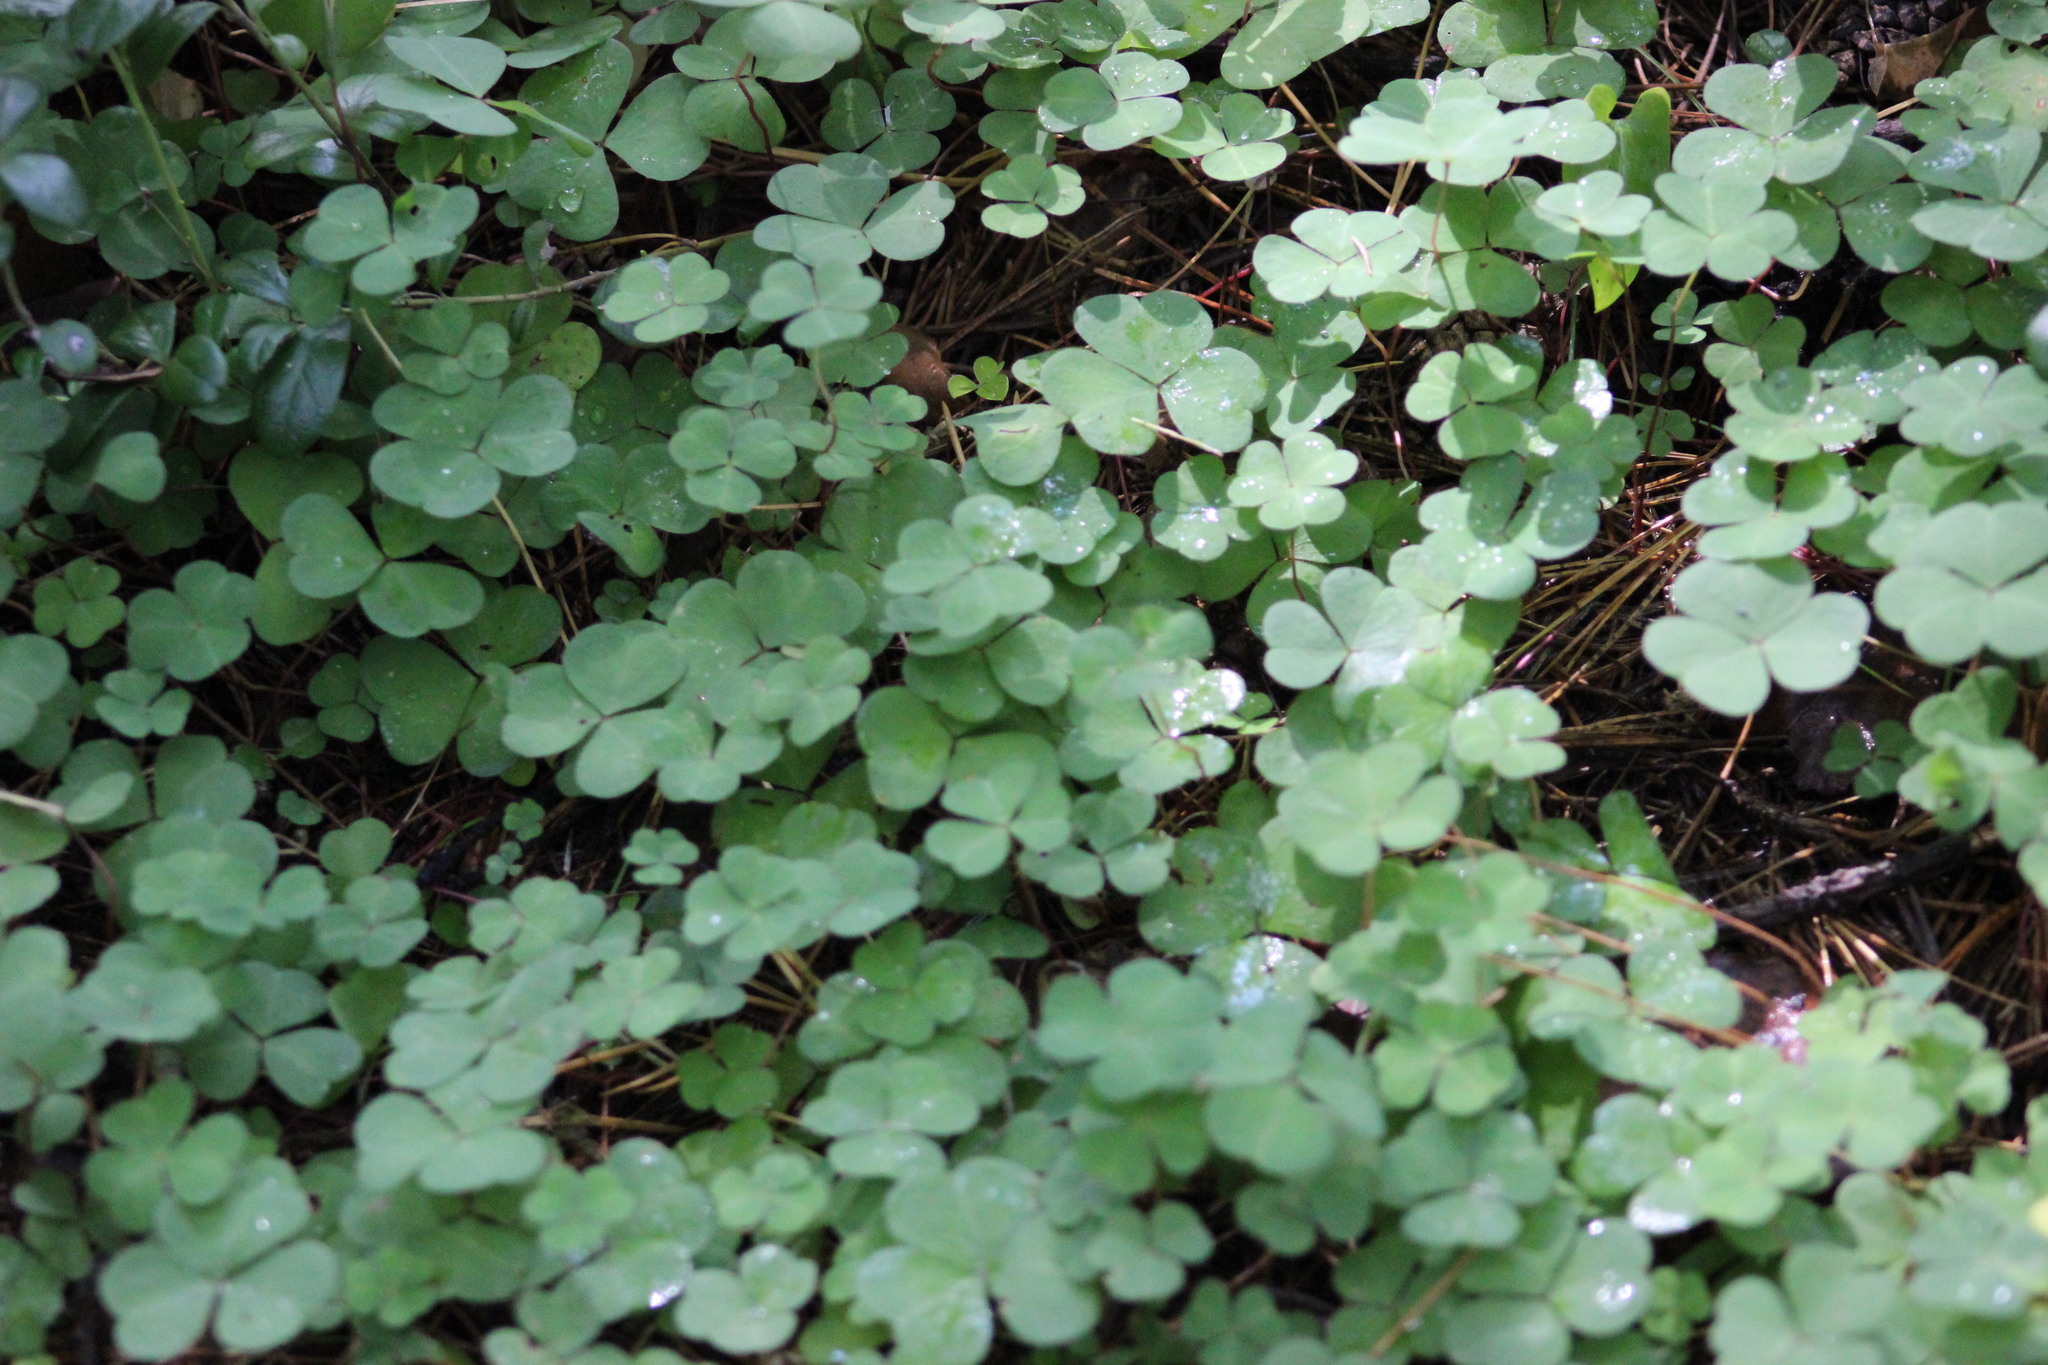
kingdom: Plantae
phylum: Tracheophyta
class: Magnoliopsida
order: Oxalidales
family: Oxalidaceae
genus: Oxalis
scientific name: Oxalis acetosella
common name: Wood-sorrel
